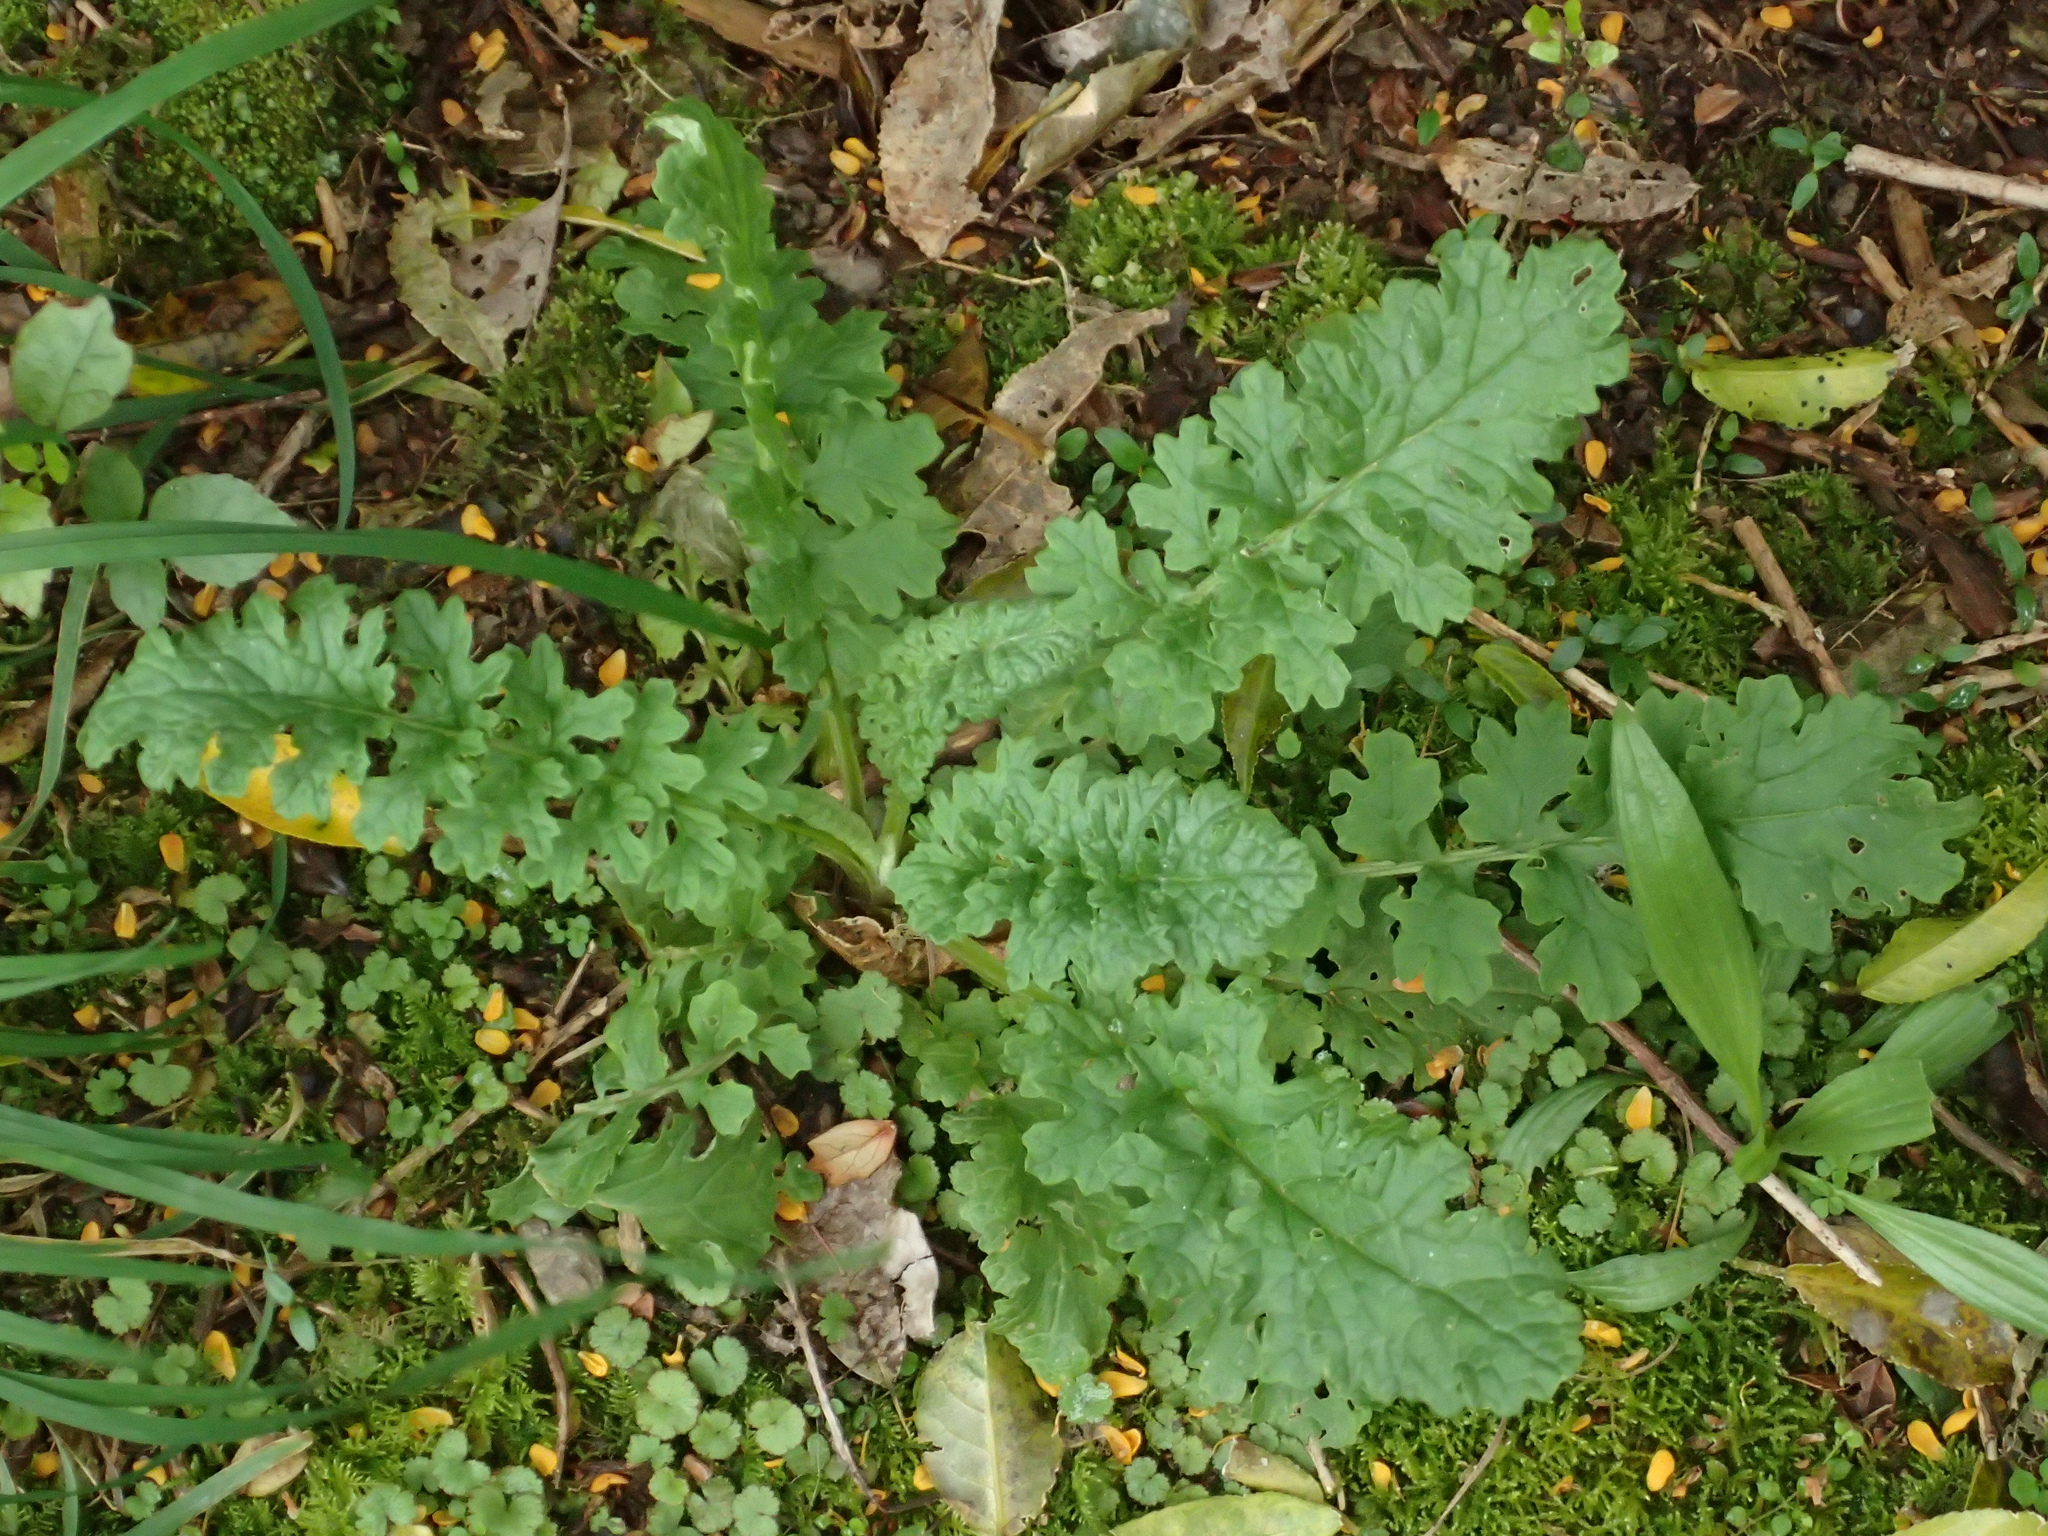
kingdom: Plantae
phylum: Tracheophyta
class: Magnoliopsida
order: Asterales
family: Asteraceae
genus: Jacobaea
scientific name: Jacobaea vulgaris
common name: Stinking willie
